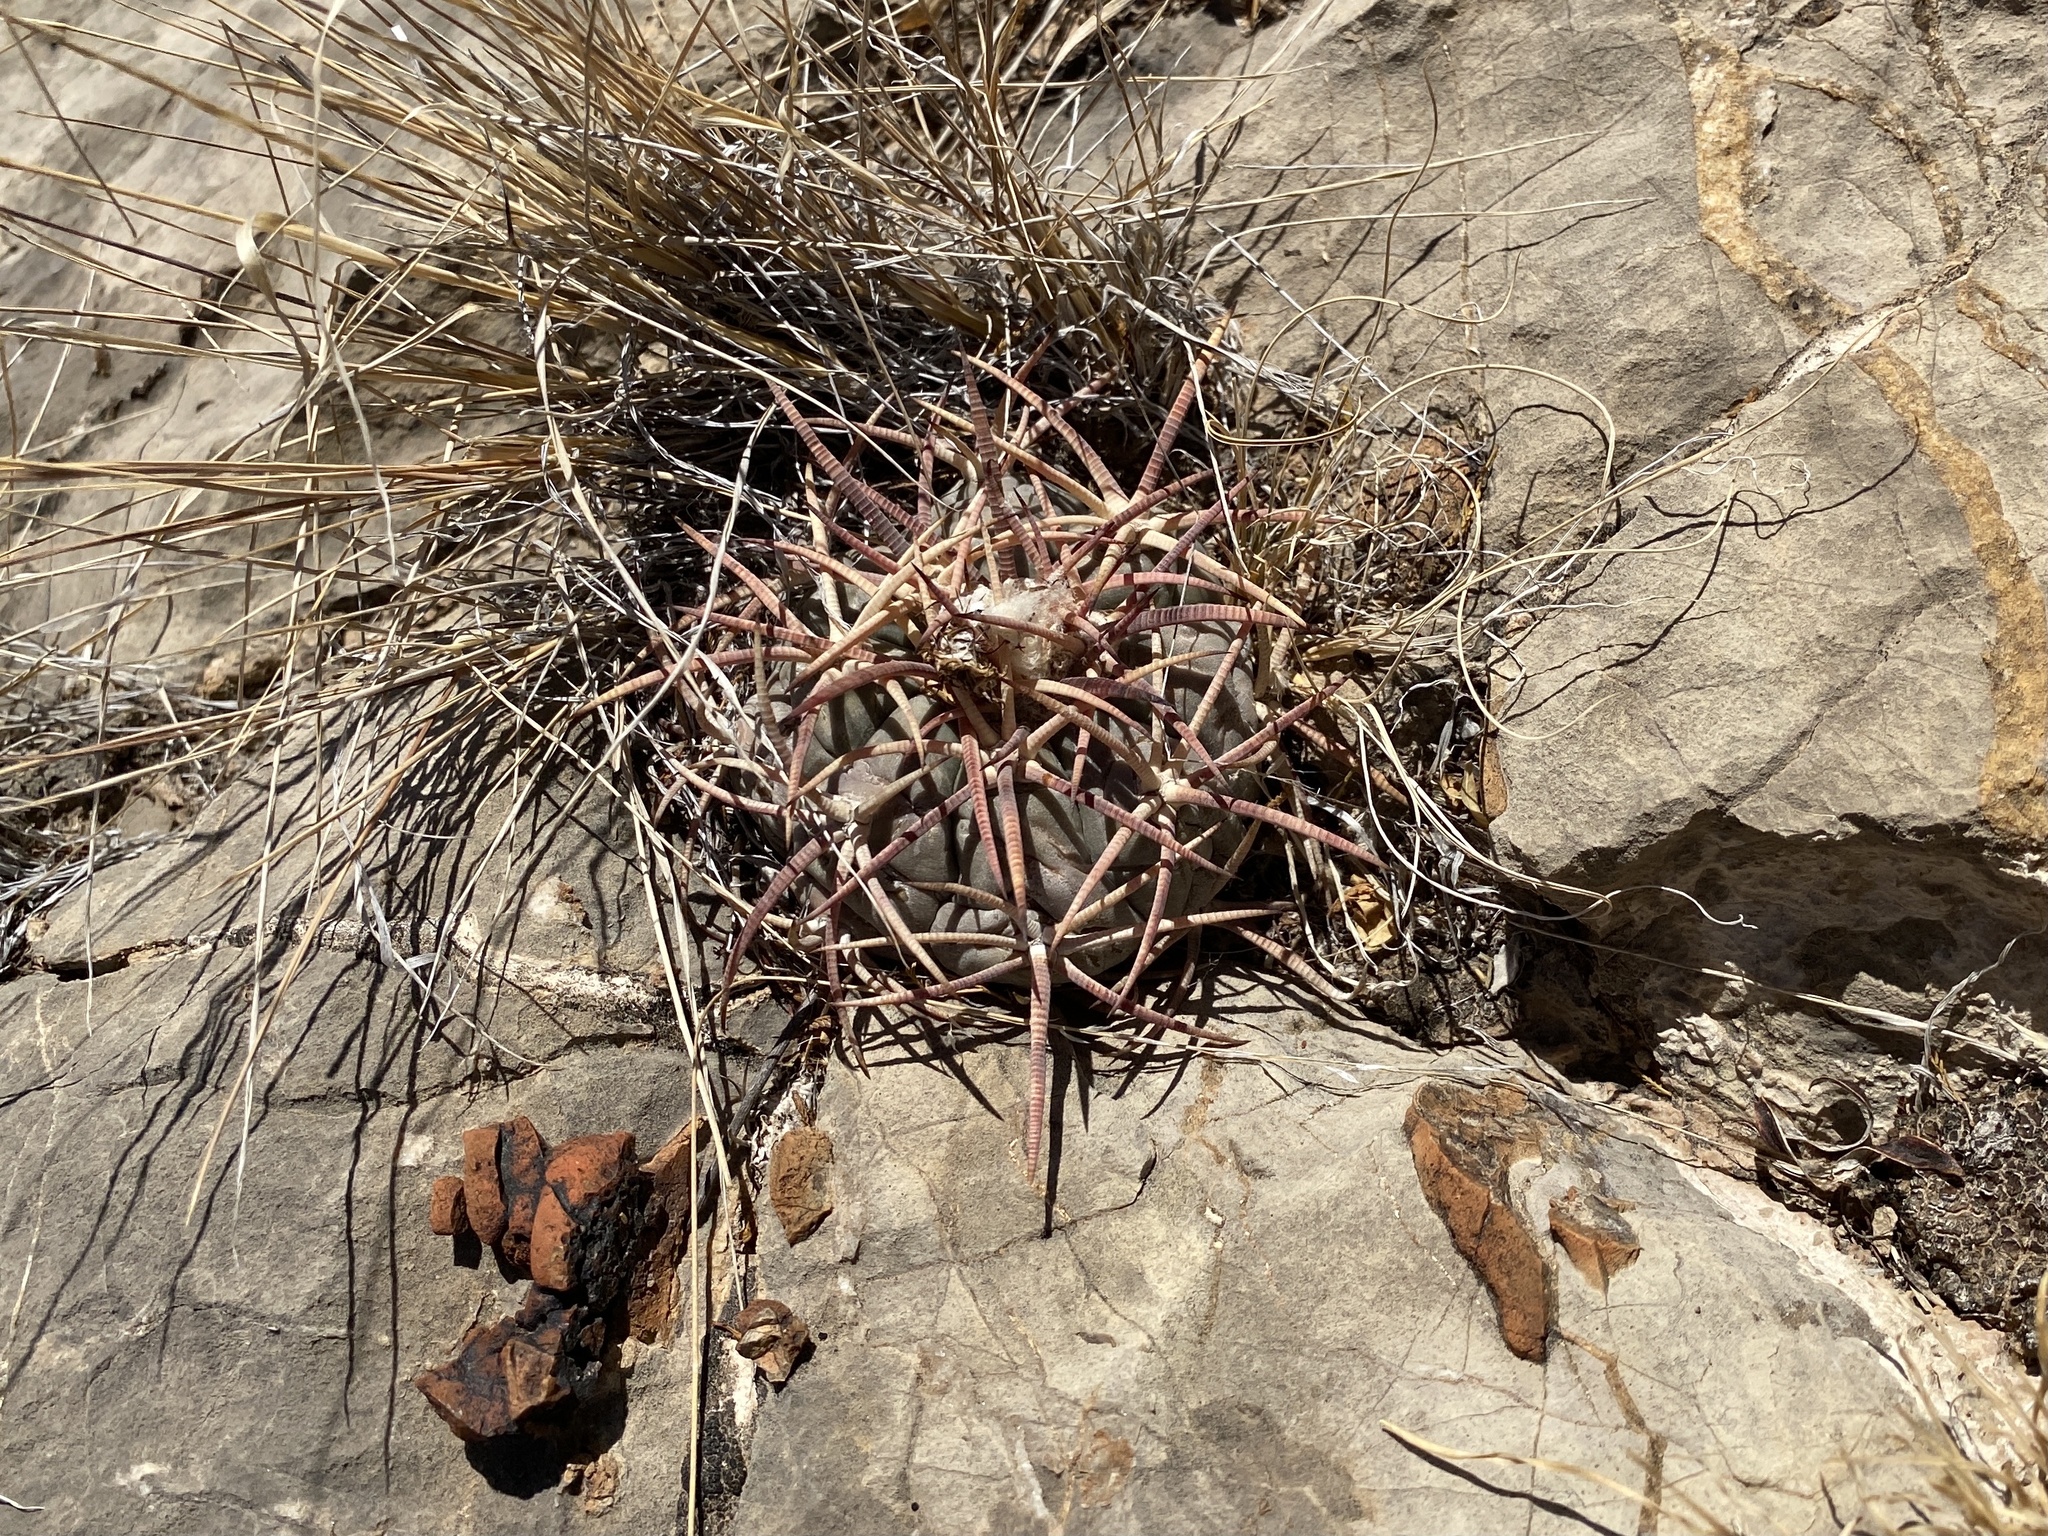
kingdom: Plantae
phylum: Tracheophyta
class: Magnoliopsida
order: Caryophyllales
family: Cactaceae
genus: Echinocactus
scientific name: Echinocactus horizonthalonius
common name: Devilshead
